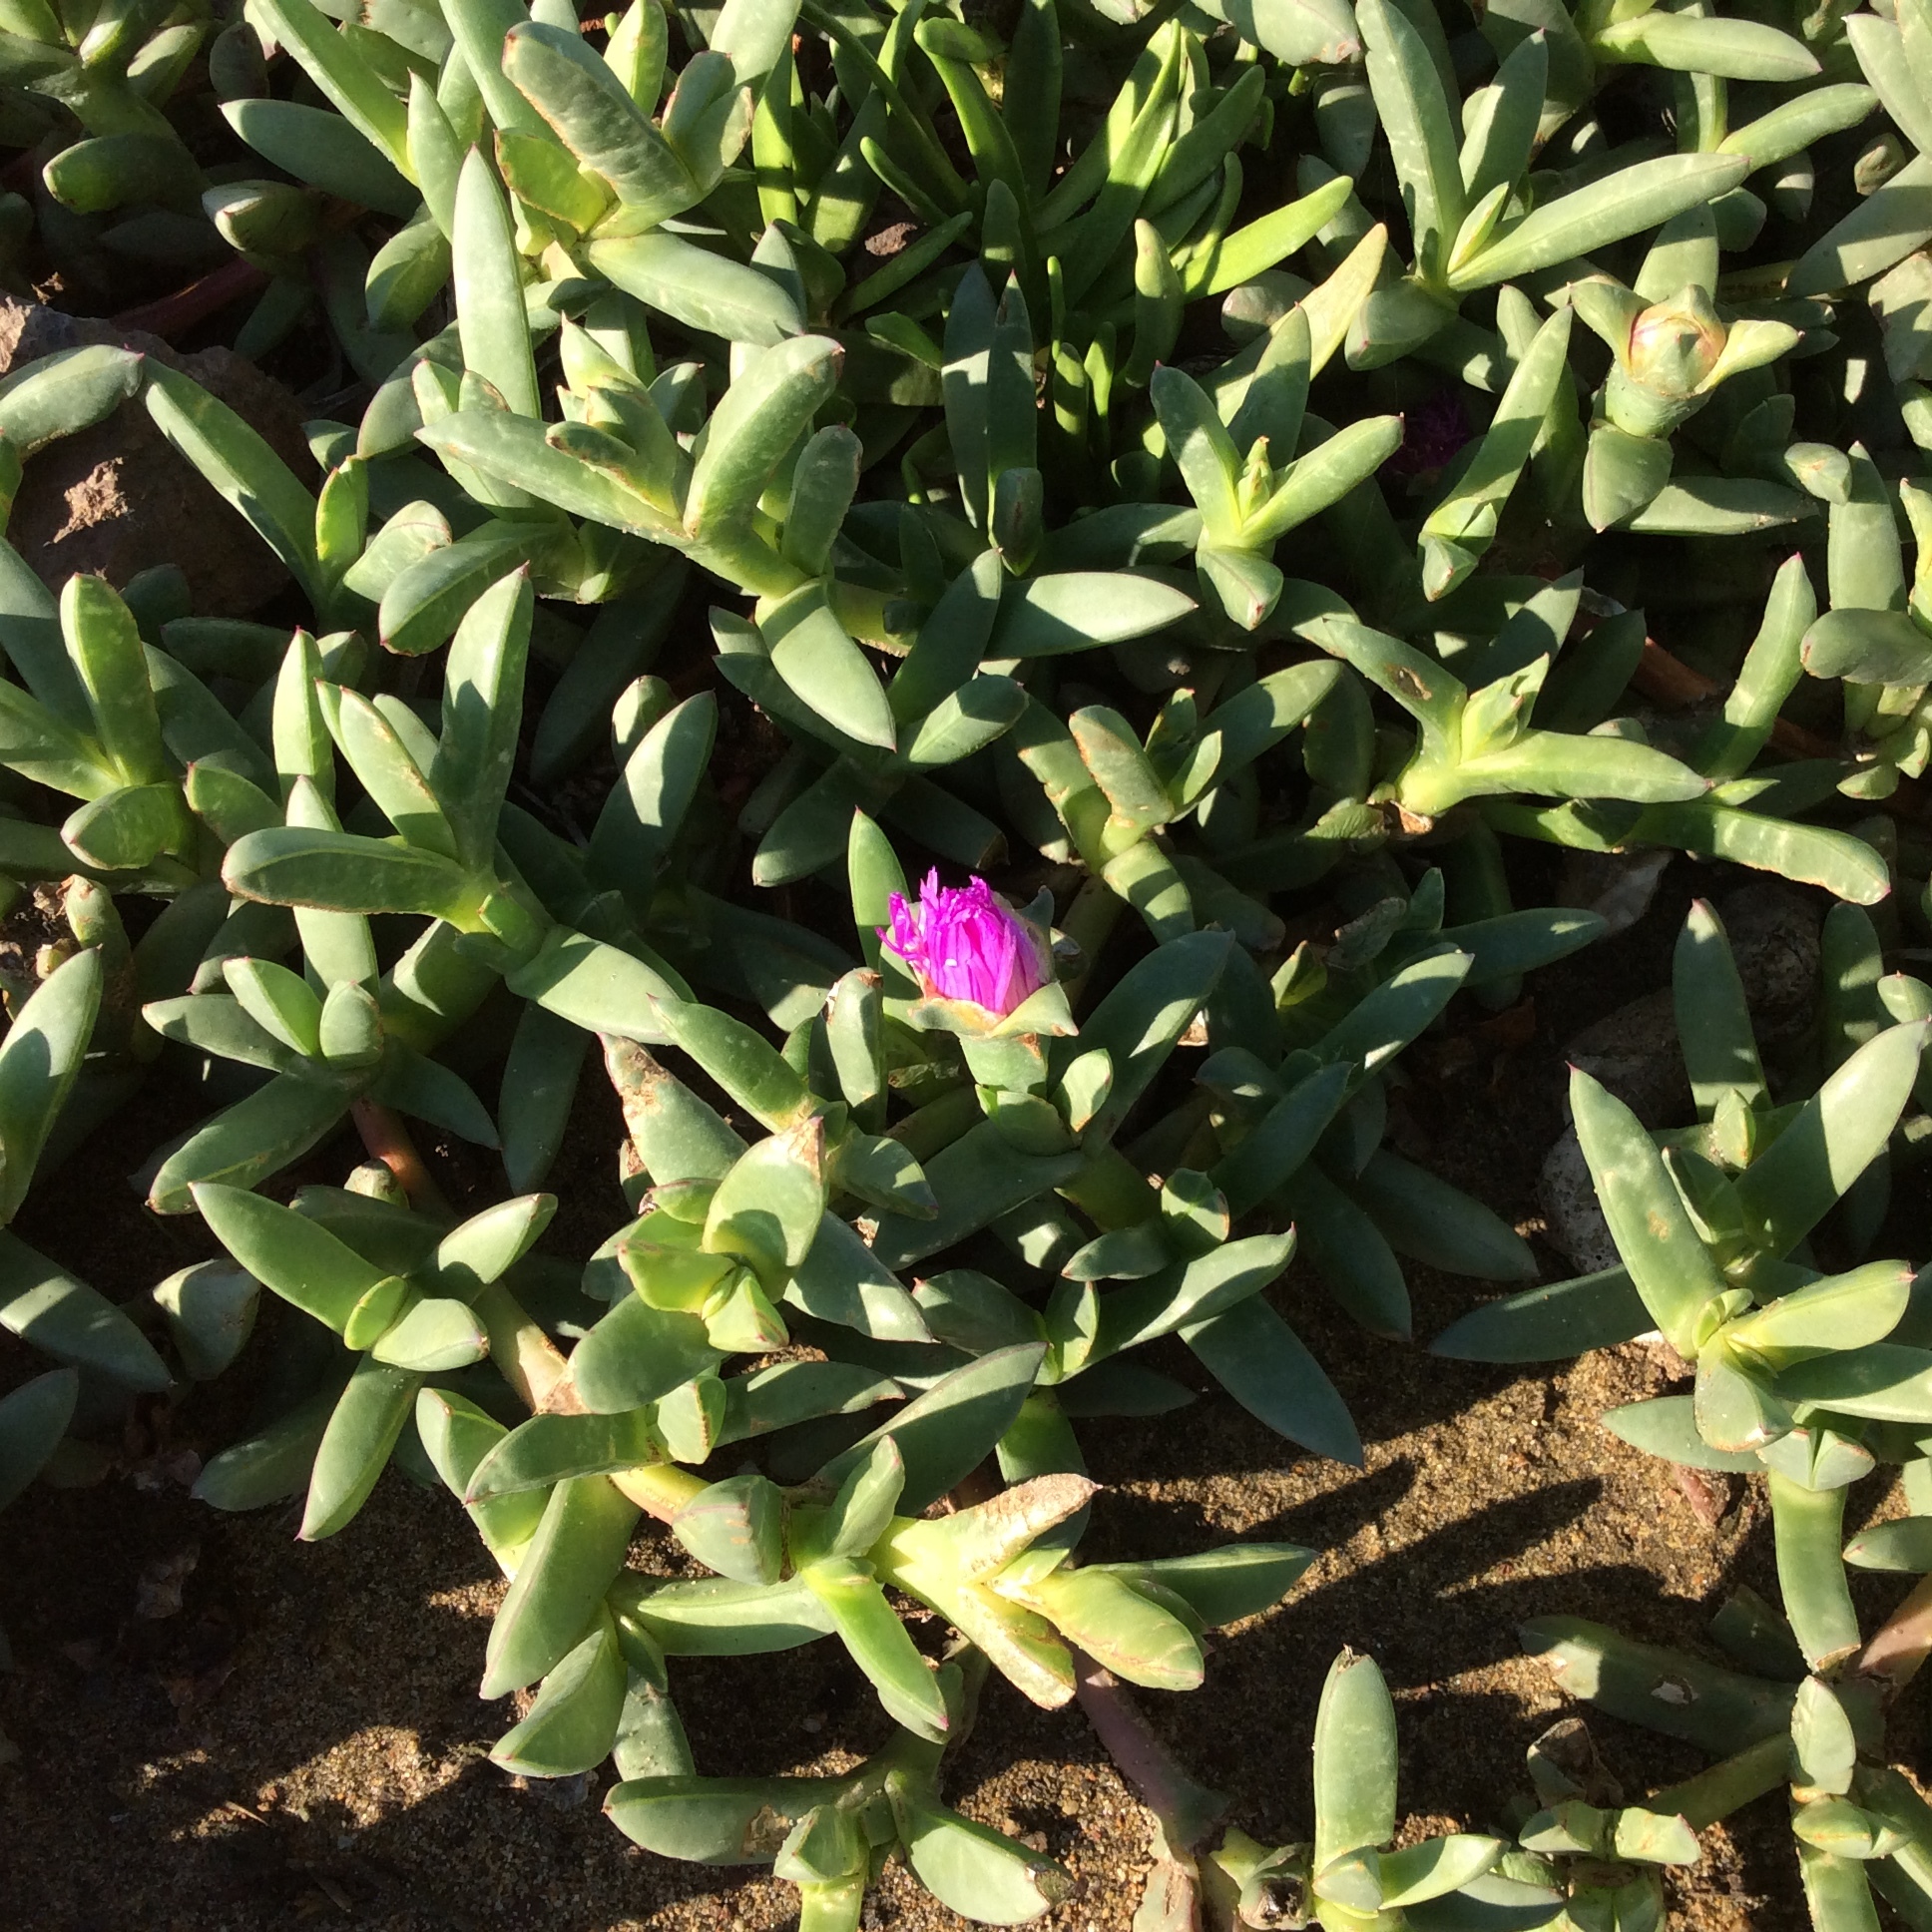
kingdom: Plantae
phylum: Tracheophyta
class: Magnoliopsida
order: Caryophyllales
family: Aizoaceae
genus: Carpobrotus
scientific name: Carpobrotus chilensis
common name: Sea fig
